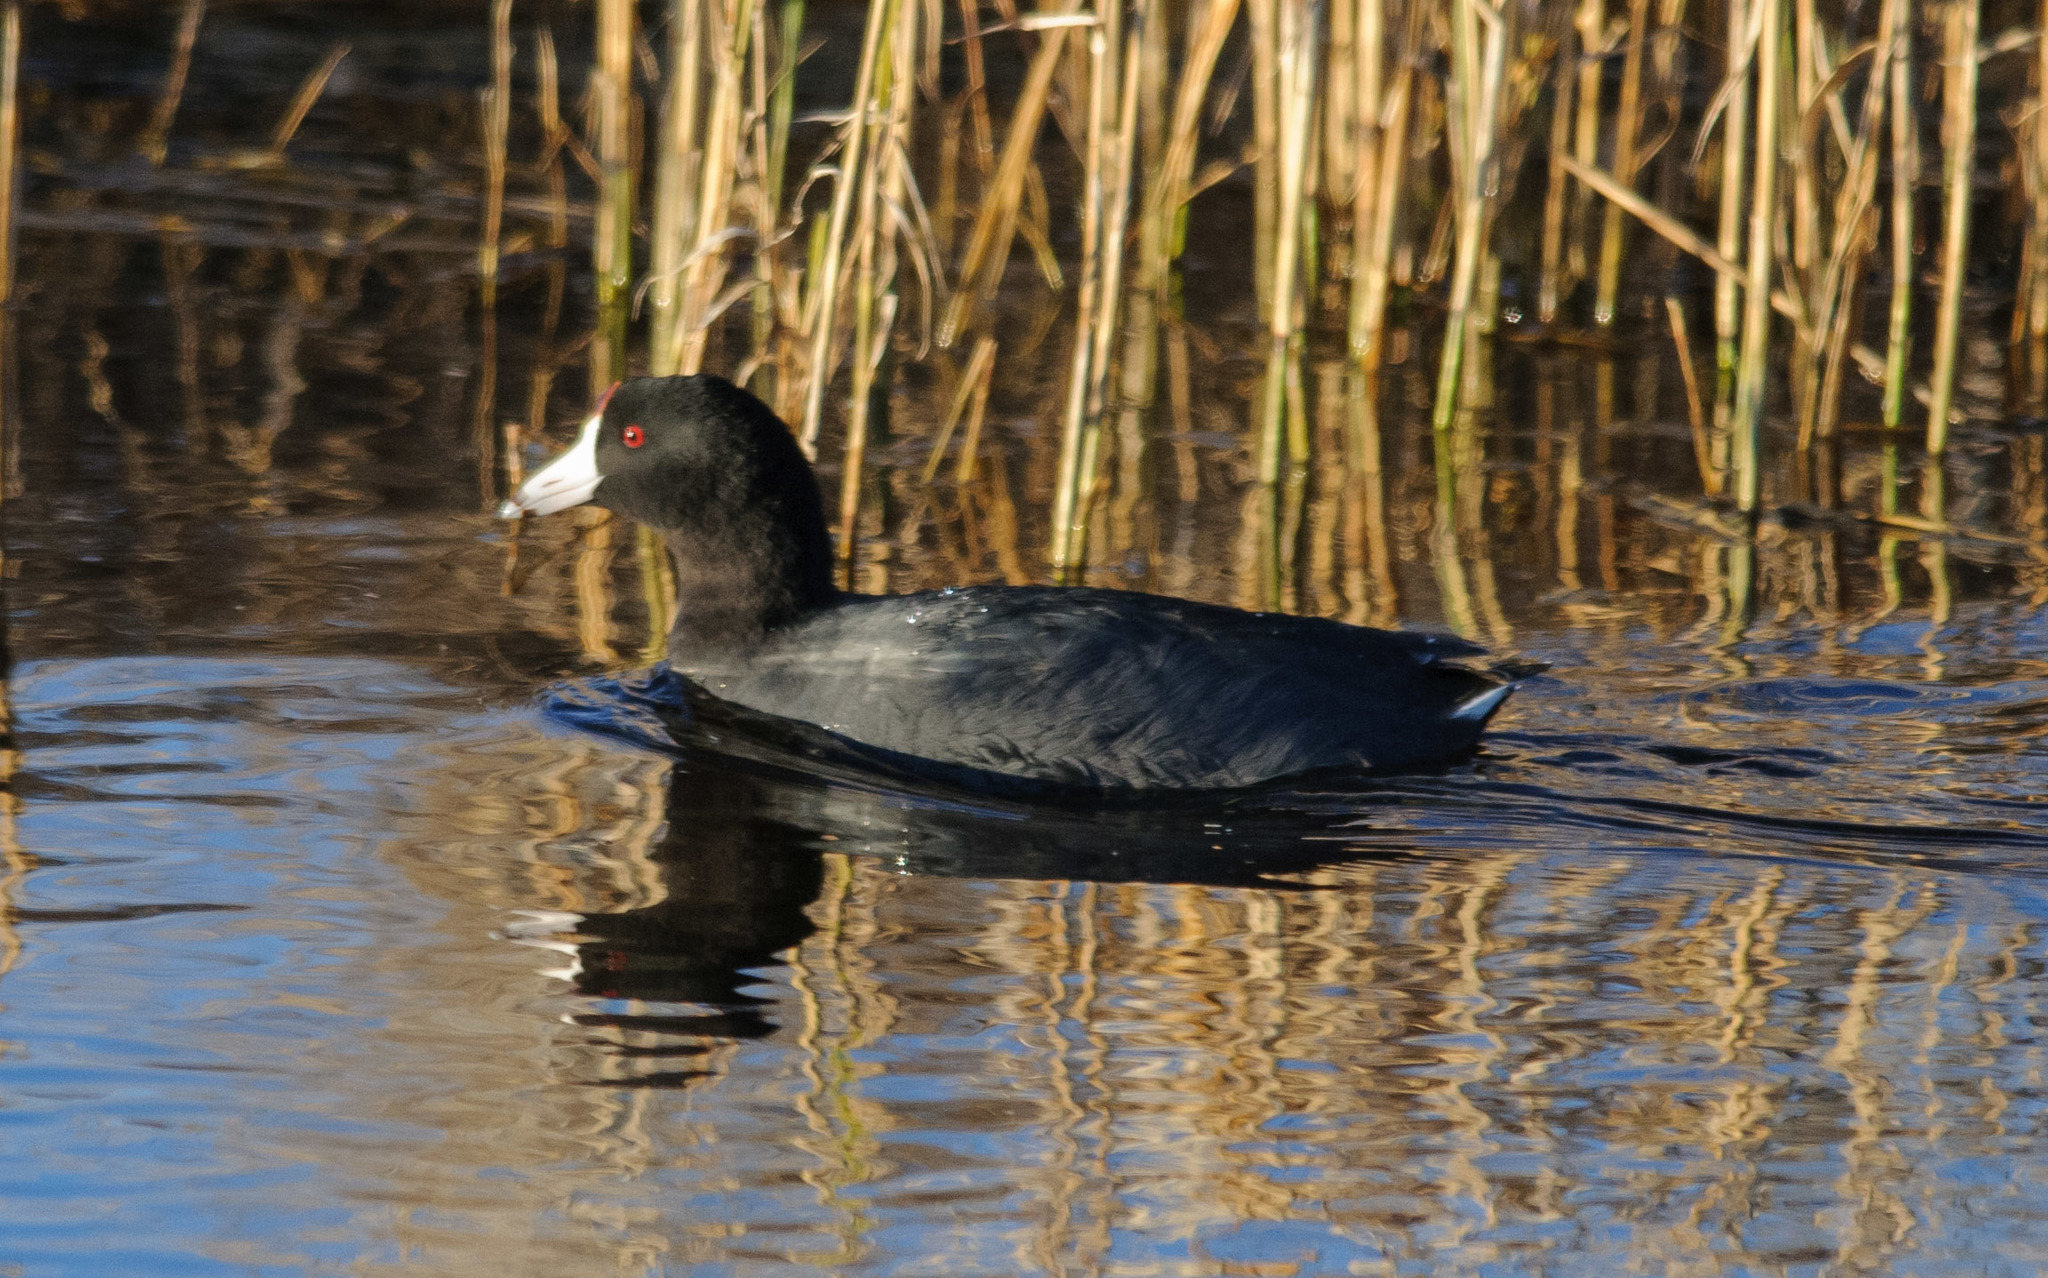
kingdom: Animalia
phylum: Chordata
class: Aves
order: Gruiformes
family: Rallidae
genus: Fulica
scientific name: Fulica americana
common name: American coot
